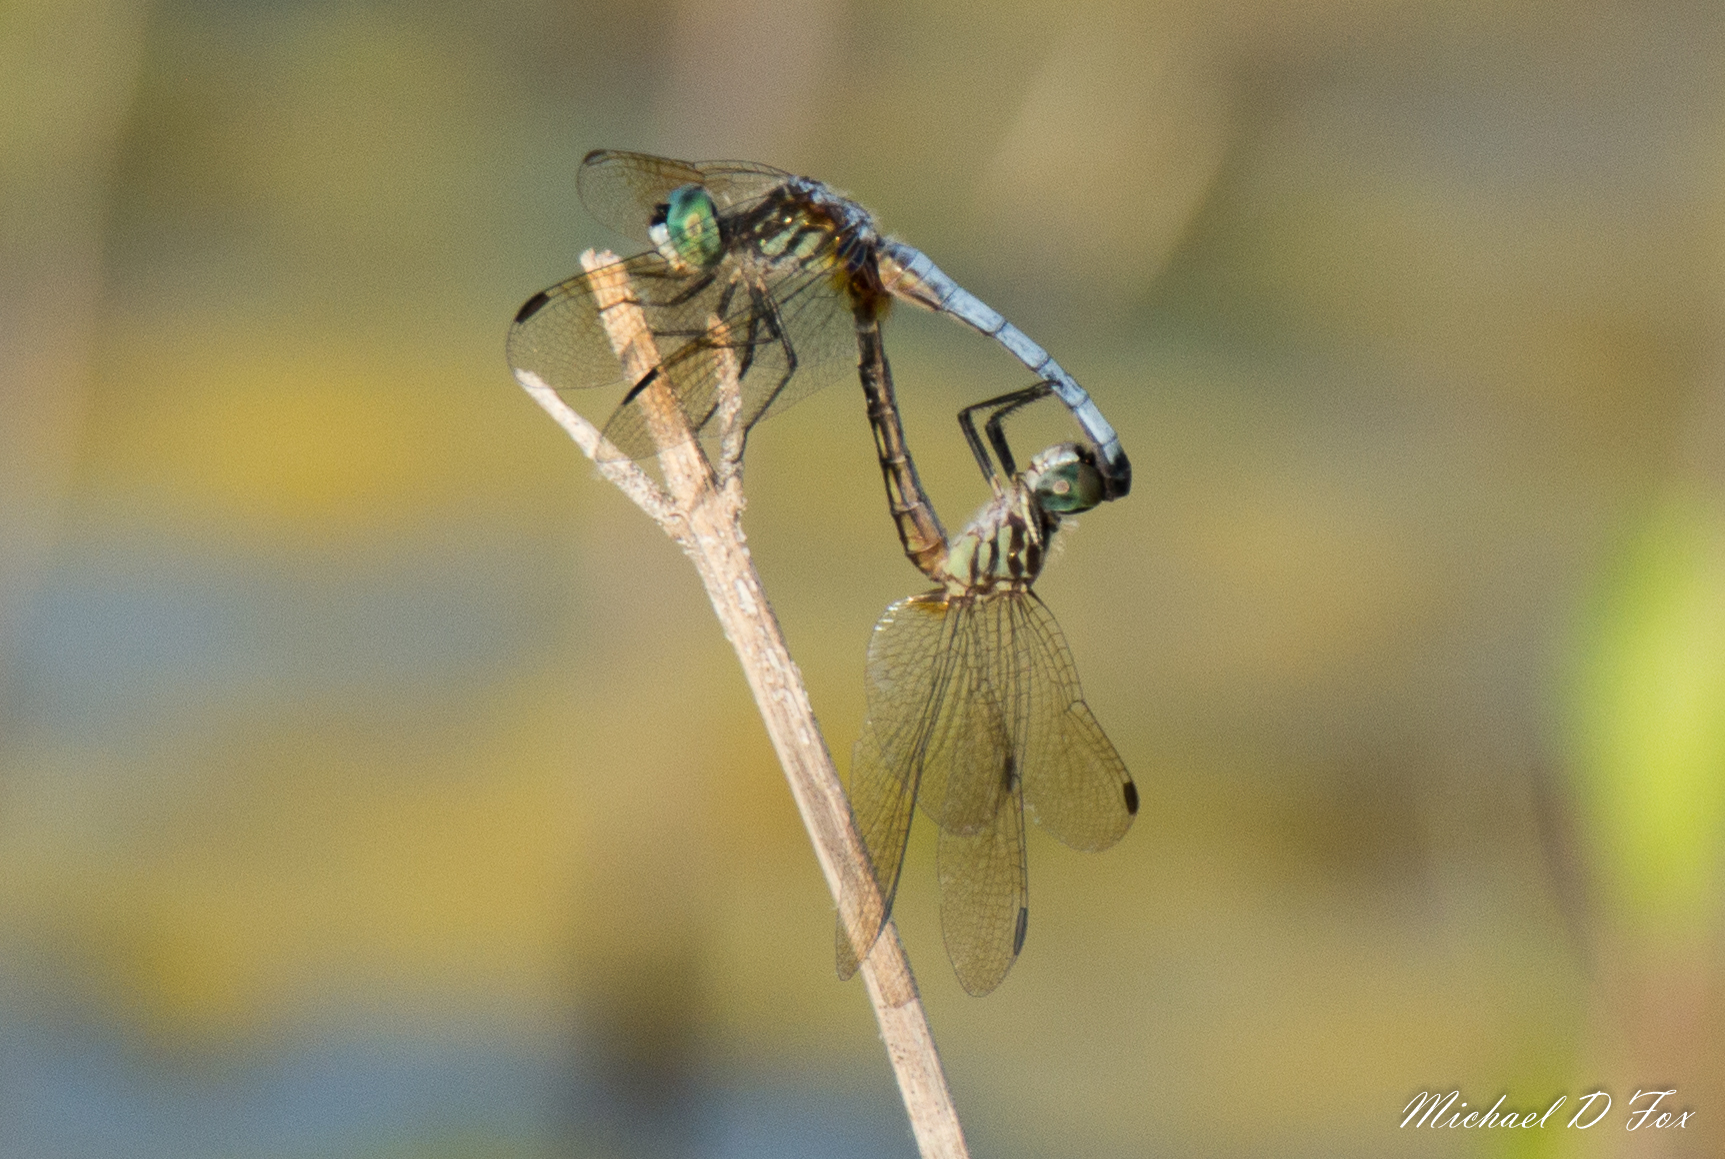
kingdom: Animalia
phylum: Arthropoda
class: Insecta
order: Odonata
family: Libellulidae
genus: Pachydiplax
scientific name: Pachydiplax longipennis
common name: Blue dasher
